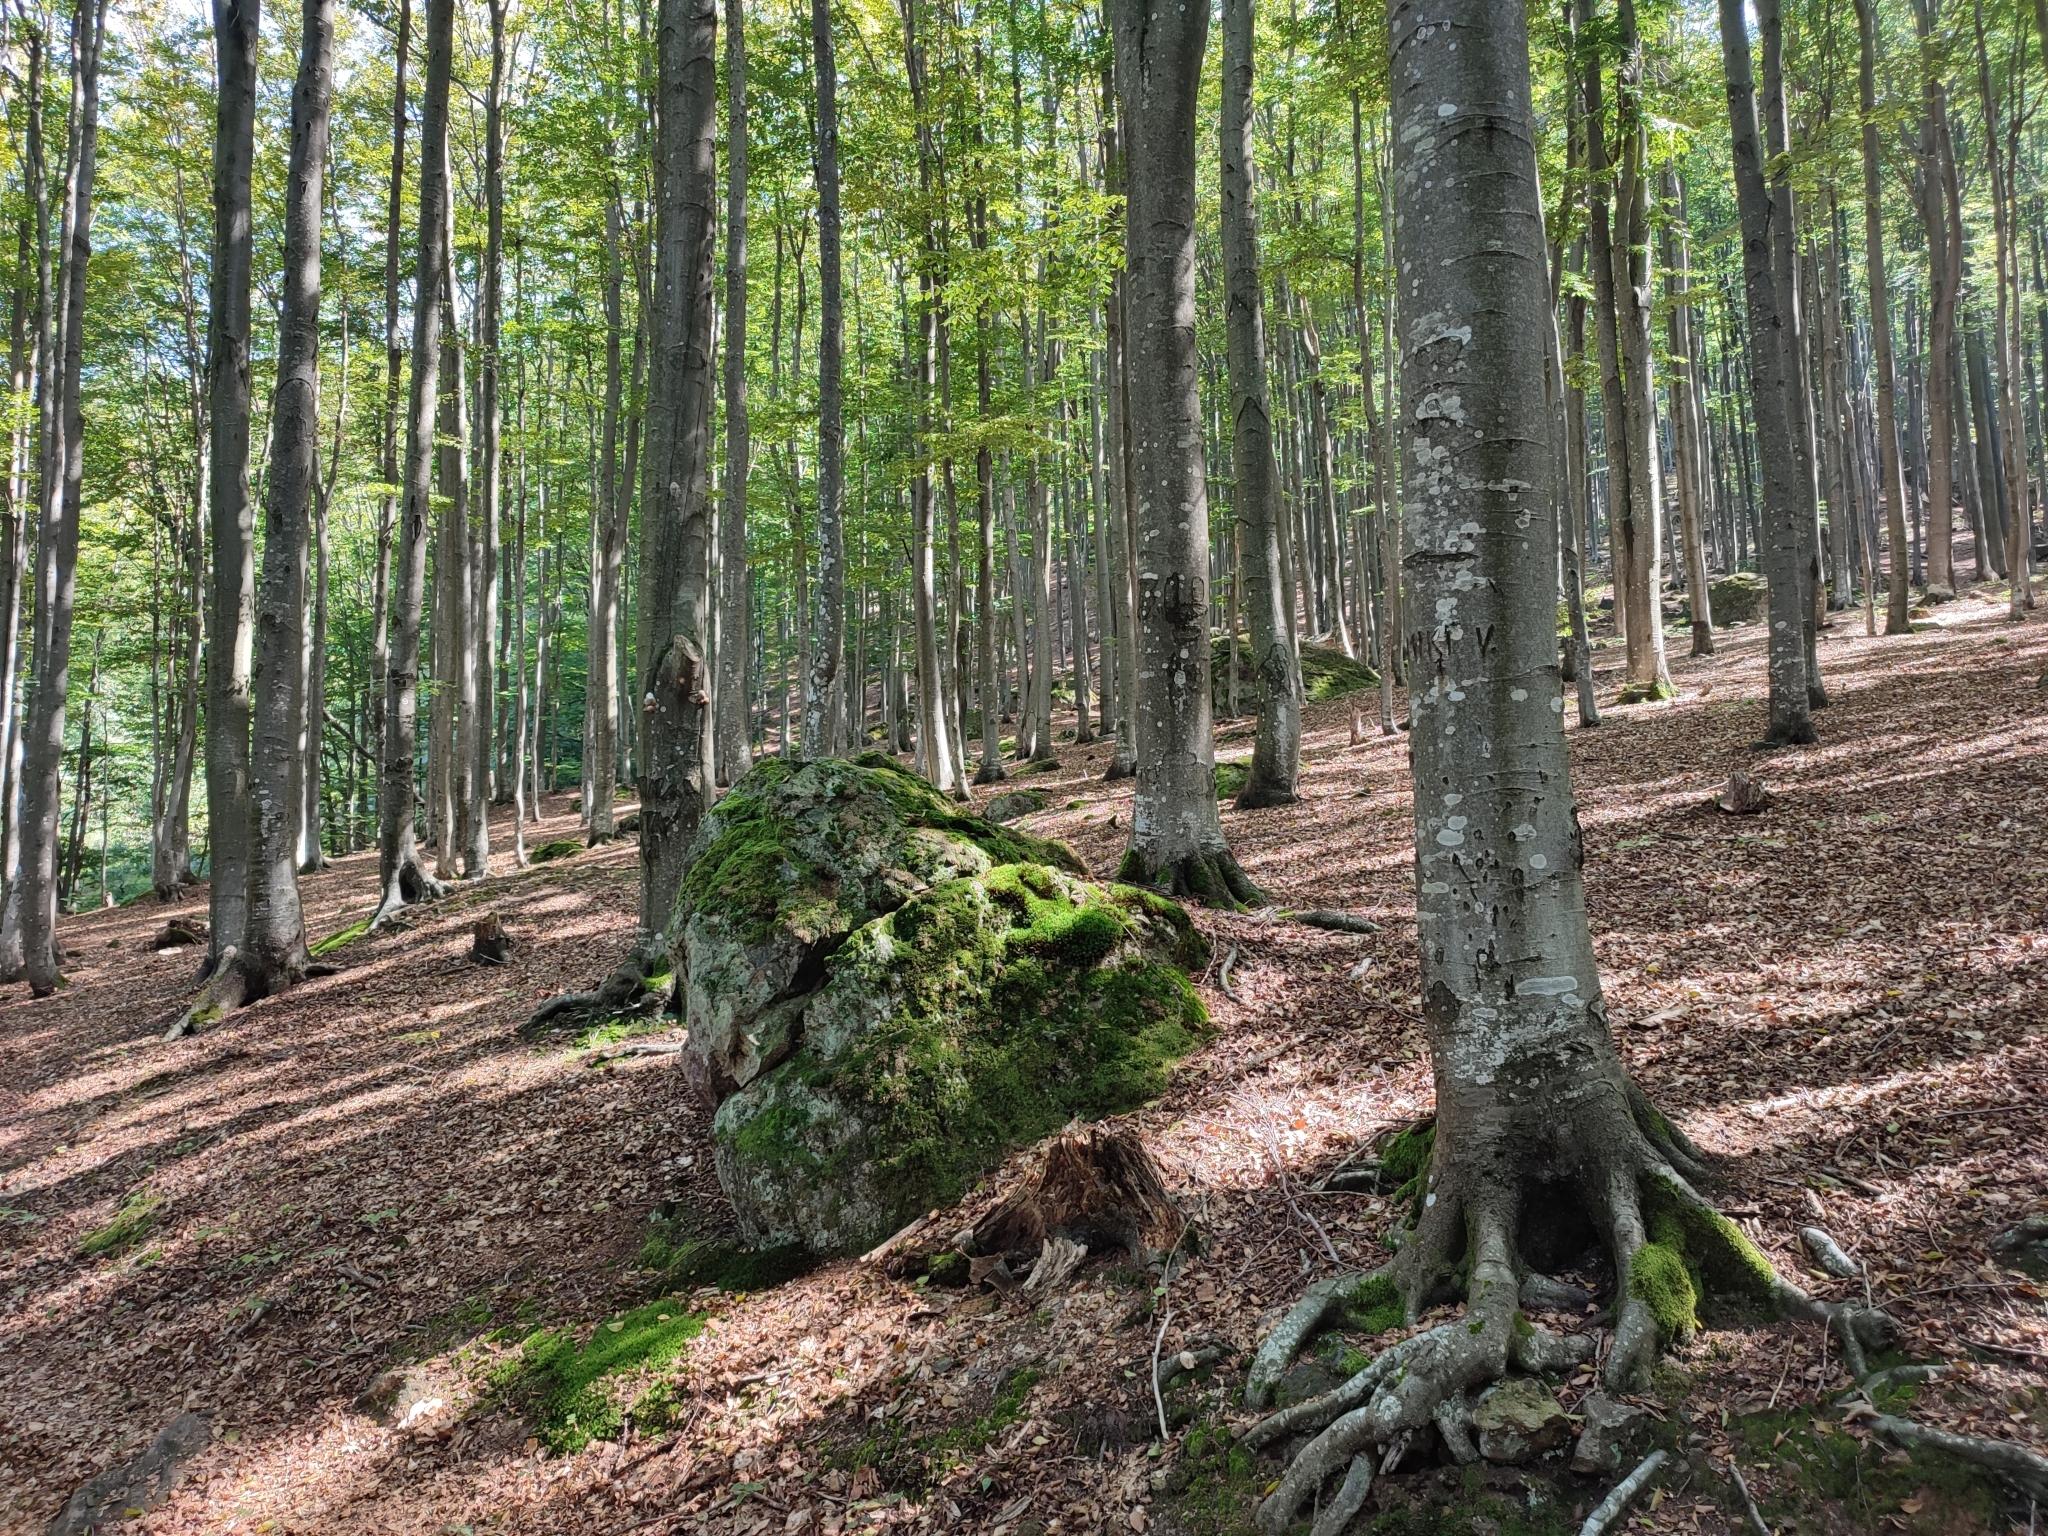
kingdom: Plantae
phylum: Tracheophyta
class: Magnoliopsida
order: Fagales
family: Fagaceae
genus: Fagus
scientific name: Fagus sylvatica
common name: Beech
